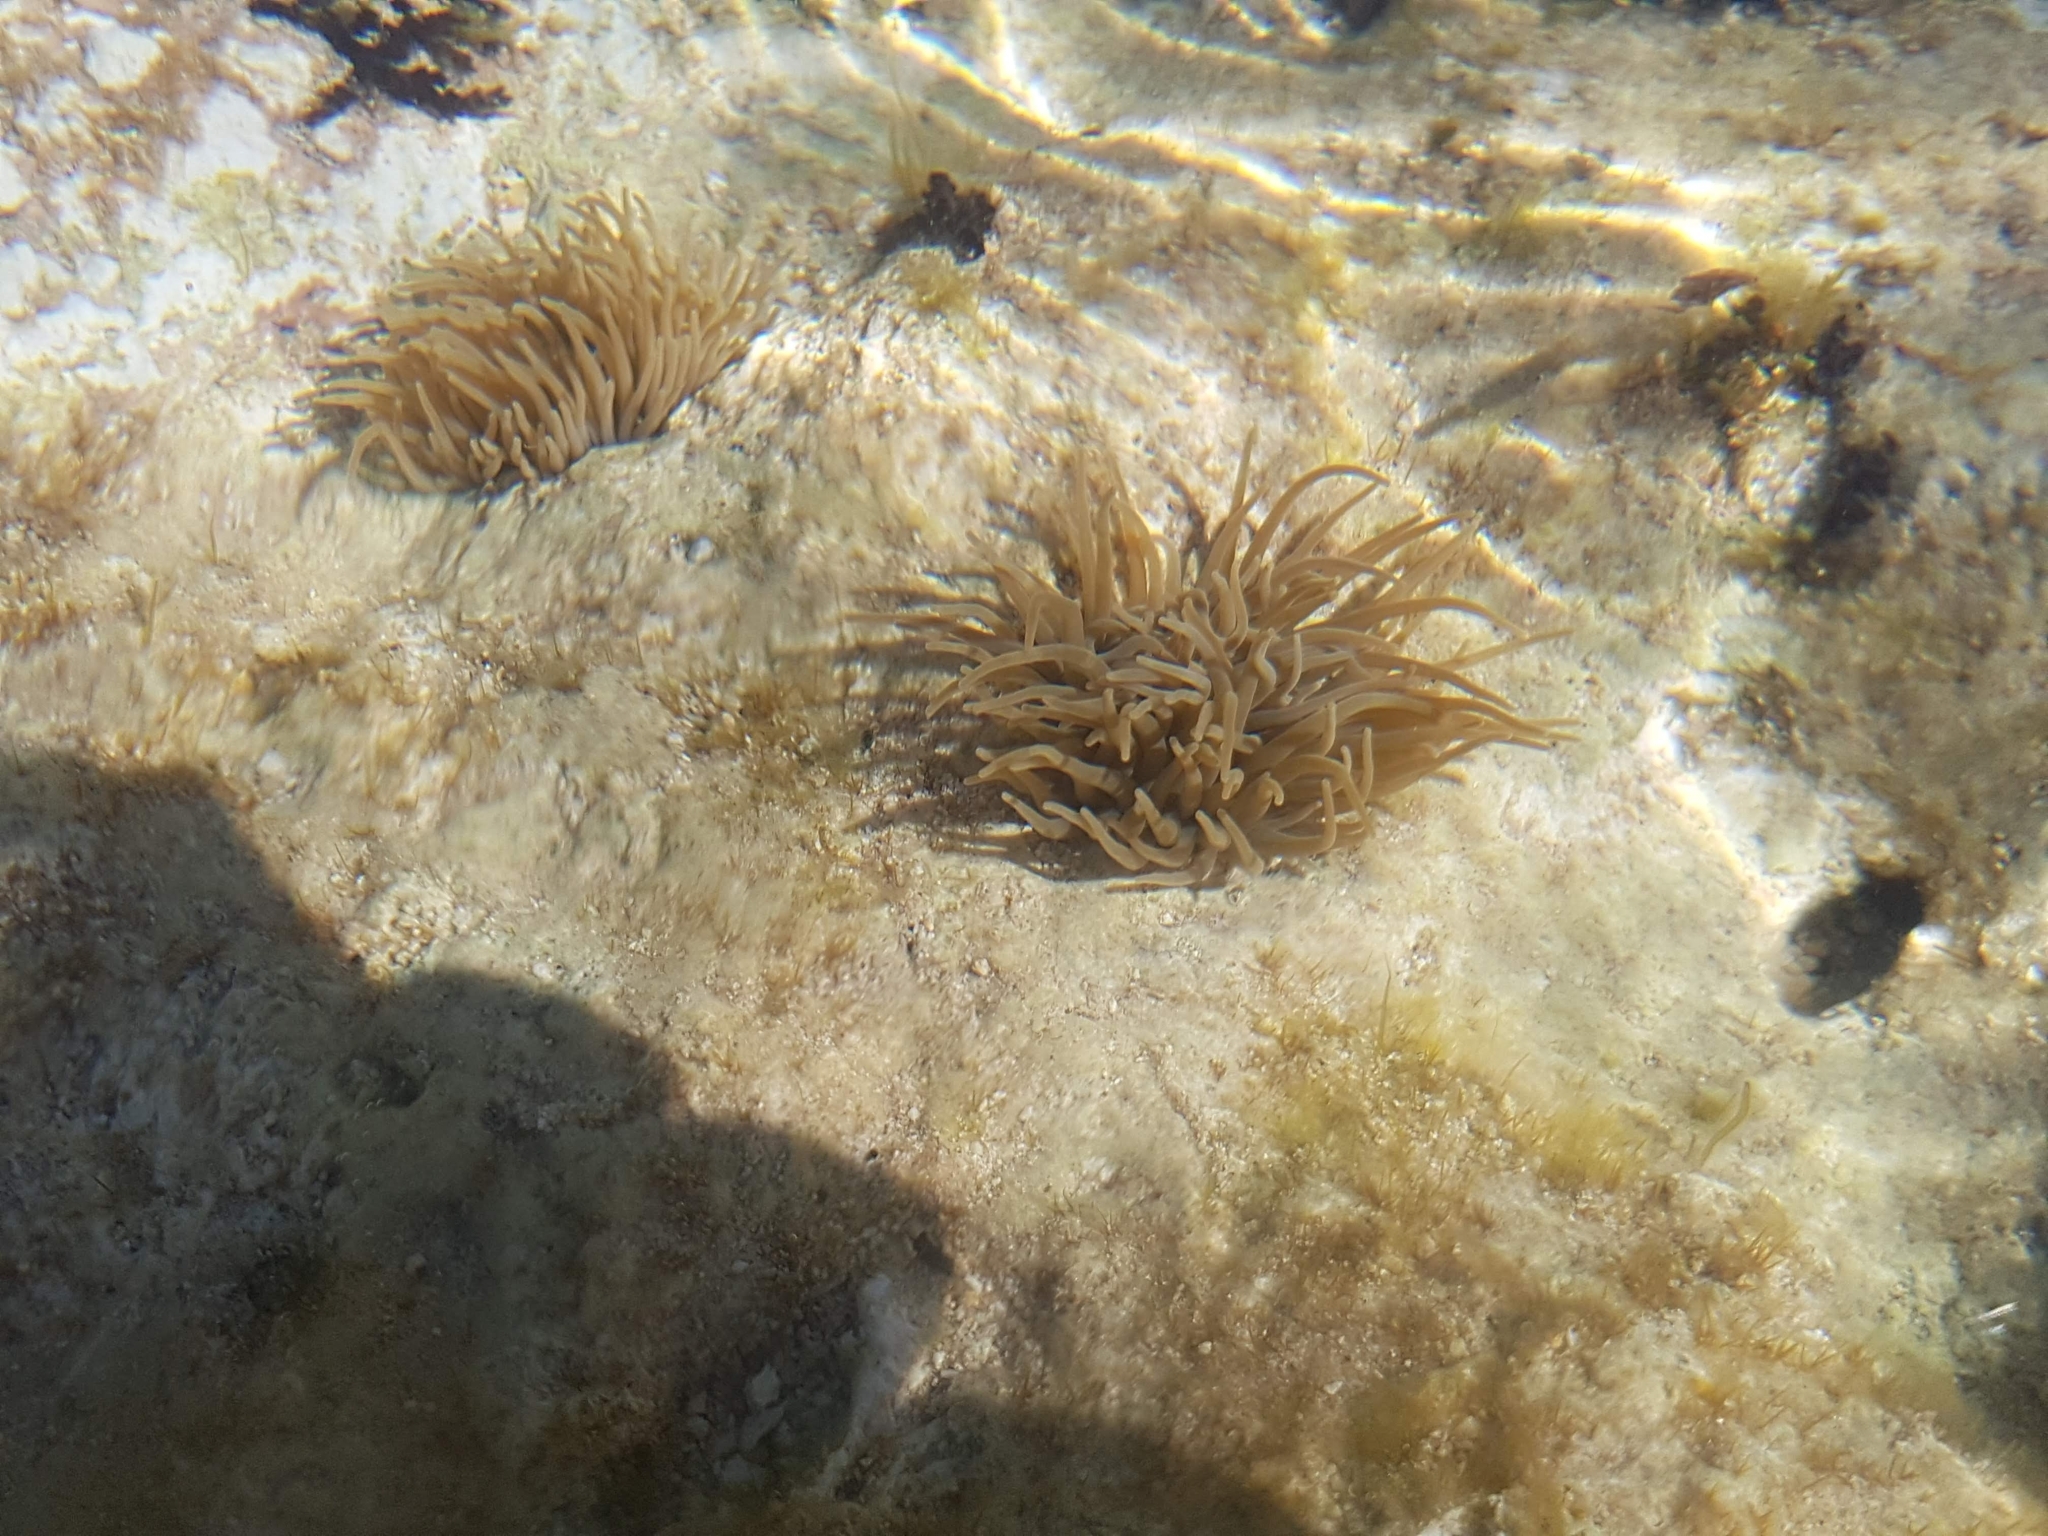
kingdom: Animalia
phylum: Cnidaria
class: Anthozoa
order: Actiniaria
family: Actiniidae
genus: Anemonia
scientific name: Anemonia viridis
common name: Snakelocks anemone
